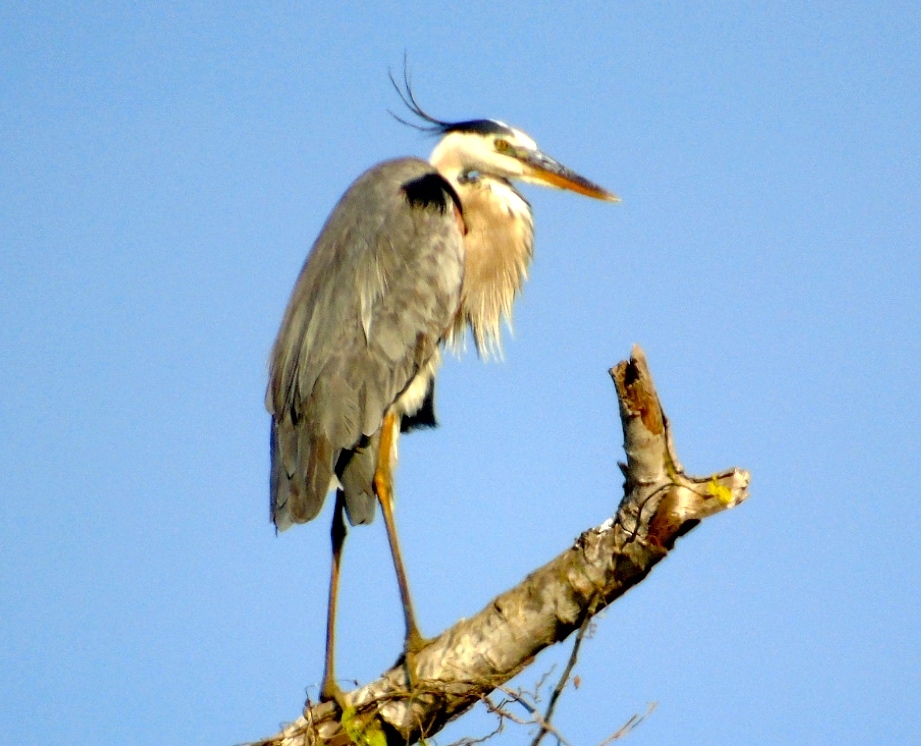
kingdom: Animalia
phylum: Chordata
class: Aves
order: Pelecaniformes
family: Ardeidae
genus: Ardea
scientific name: Ardea herodias
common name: Great blue heron
